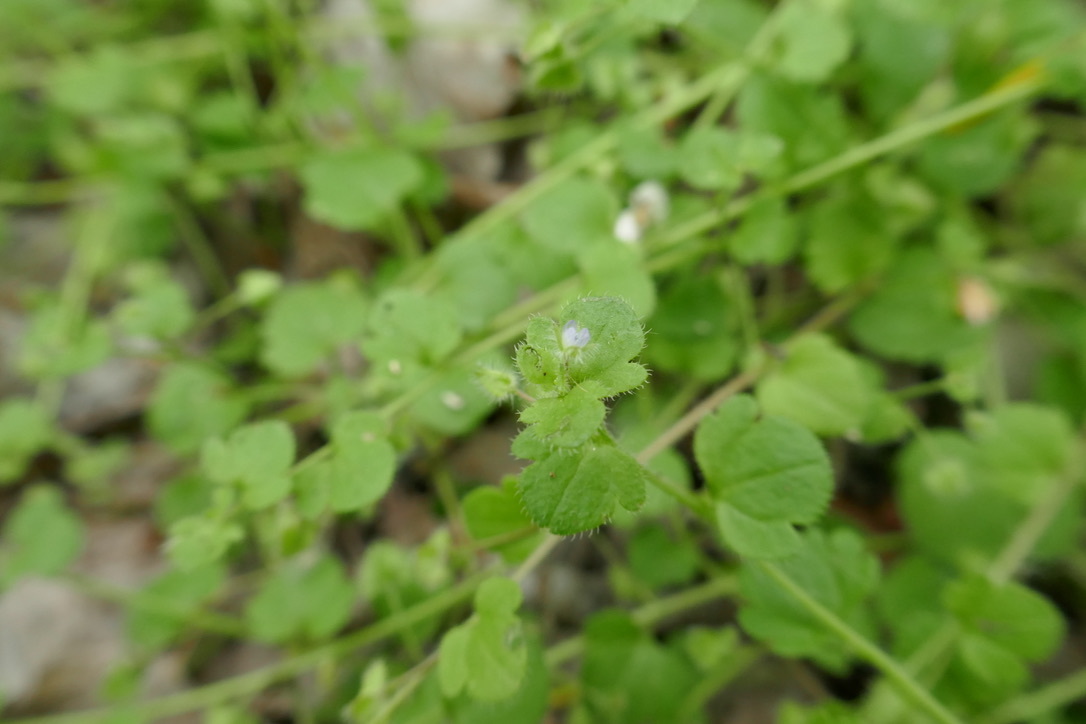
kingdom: Plantae
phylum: Tracheophyta
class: Magnoliopsida
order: Lamiales
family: Plantaginaceae
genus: Veronica
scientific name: Veronica sublobata
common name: False ivy-leaved speedwell
